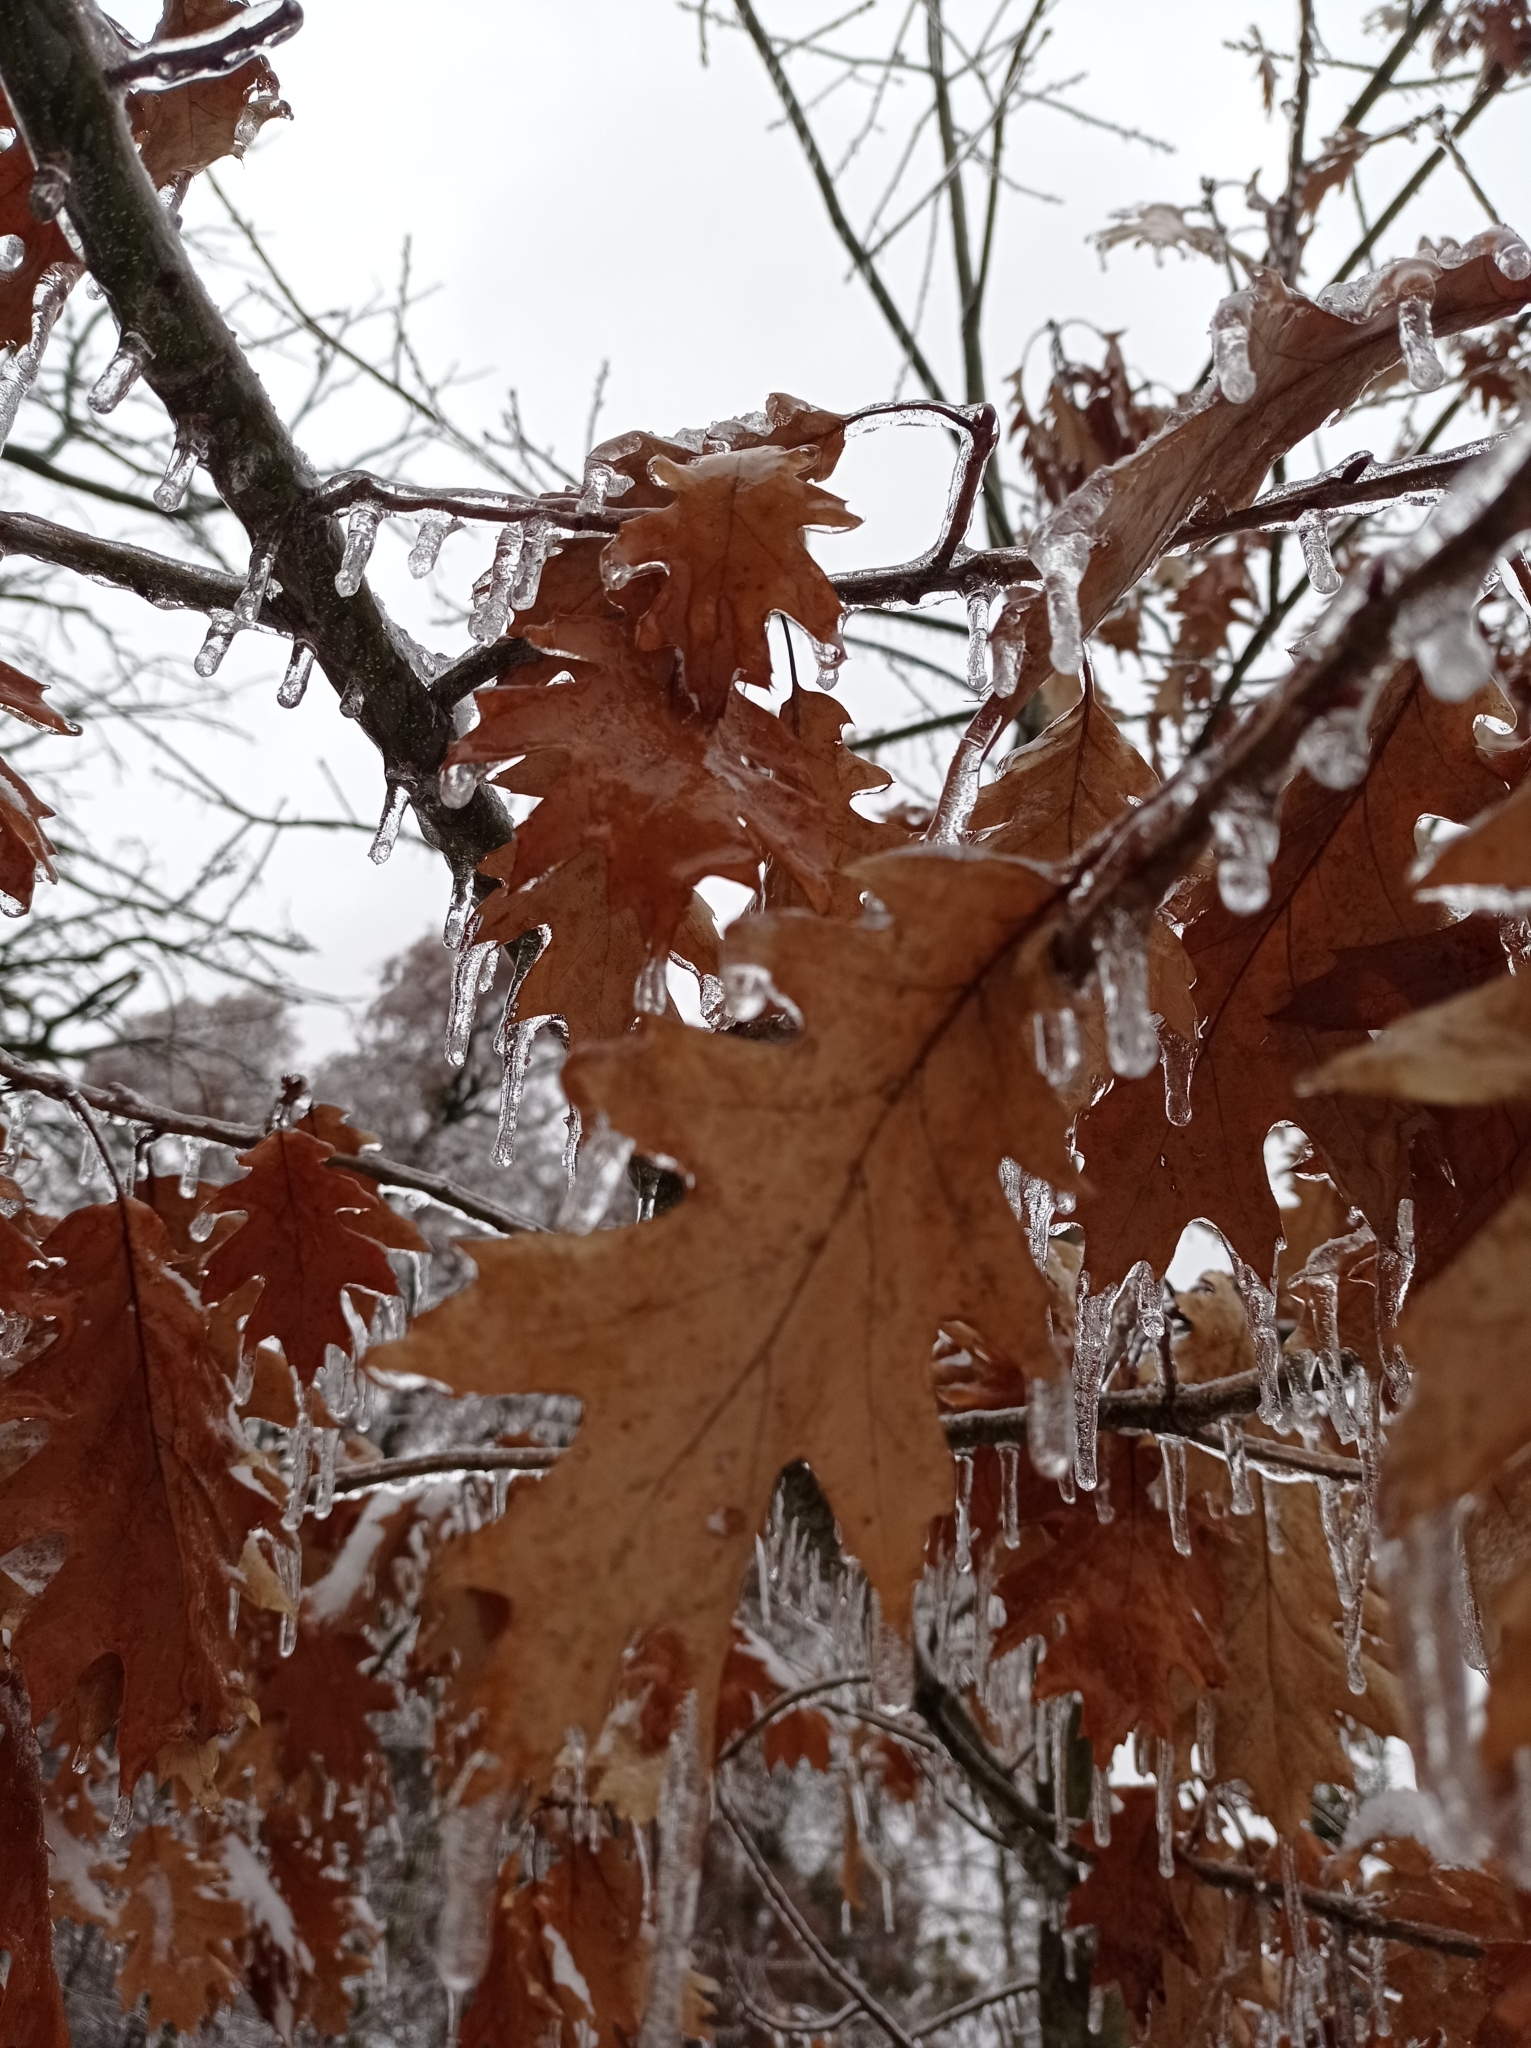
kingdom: Plantae
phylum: Tracheophyta
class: Magnoliopsida
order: Fagales
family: Fagaceae
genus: Quercus
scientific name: Quercus rubra
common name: Red oak
